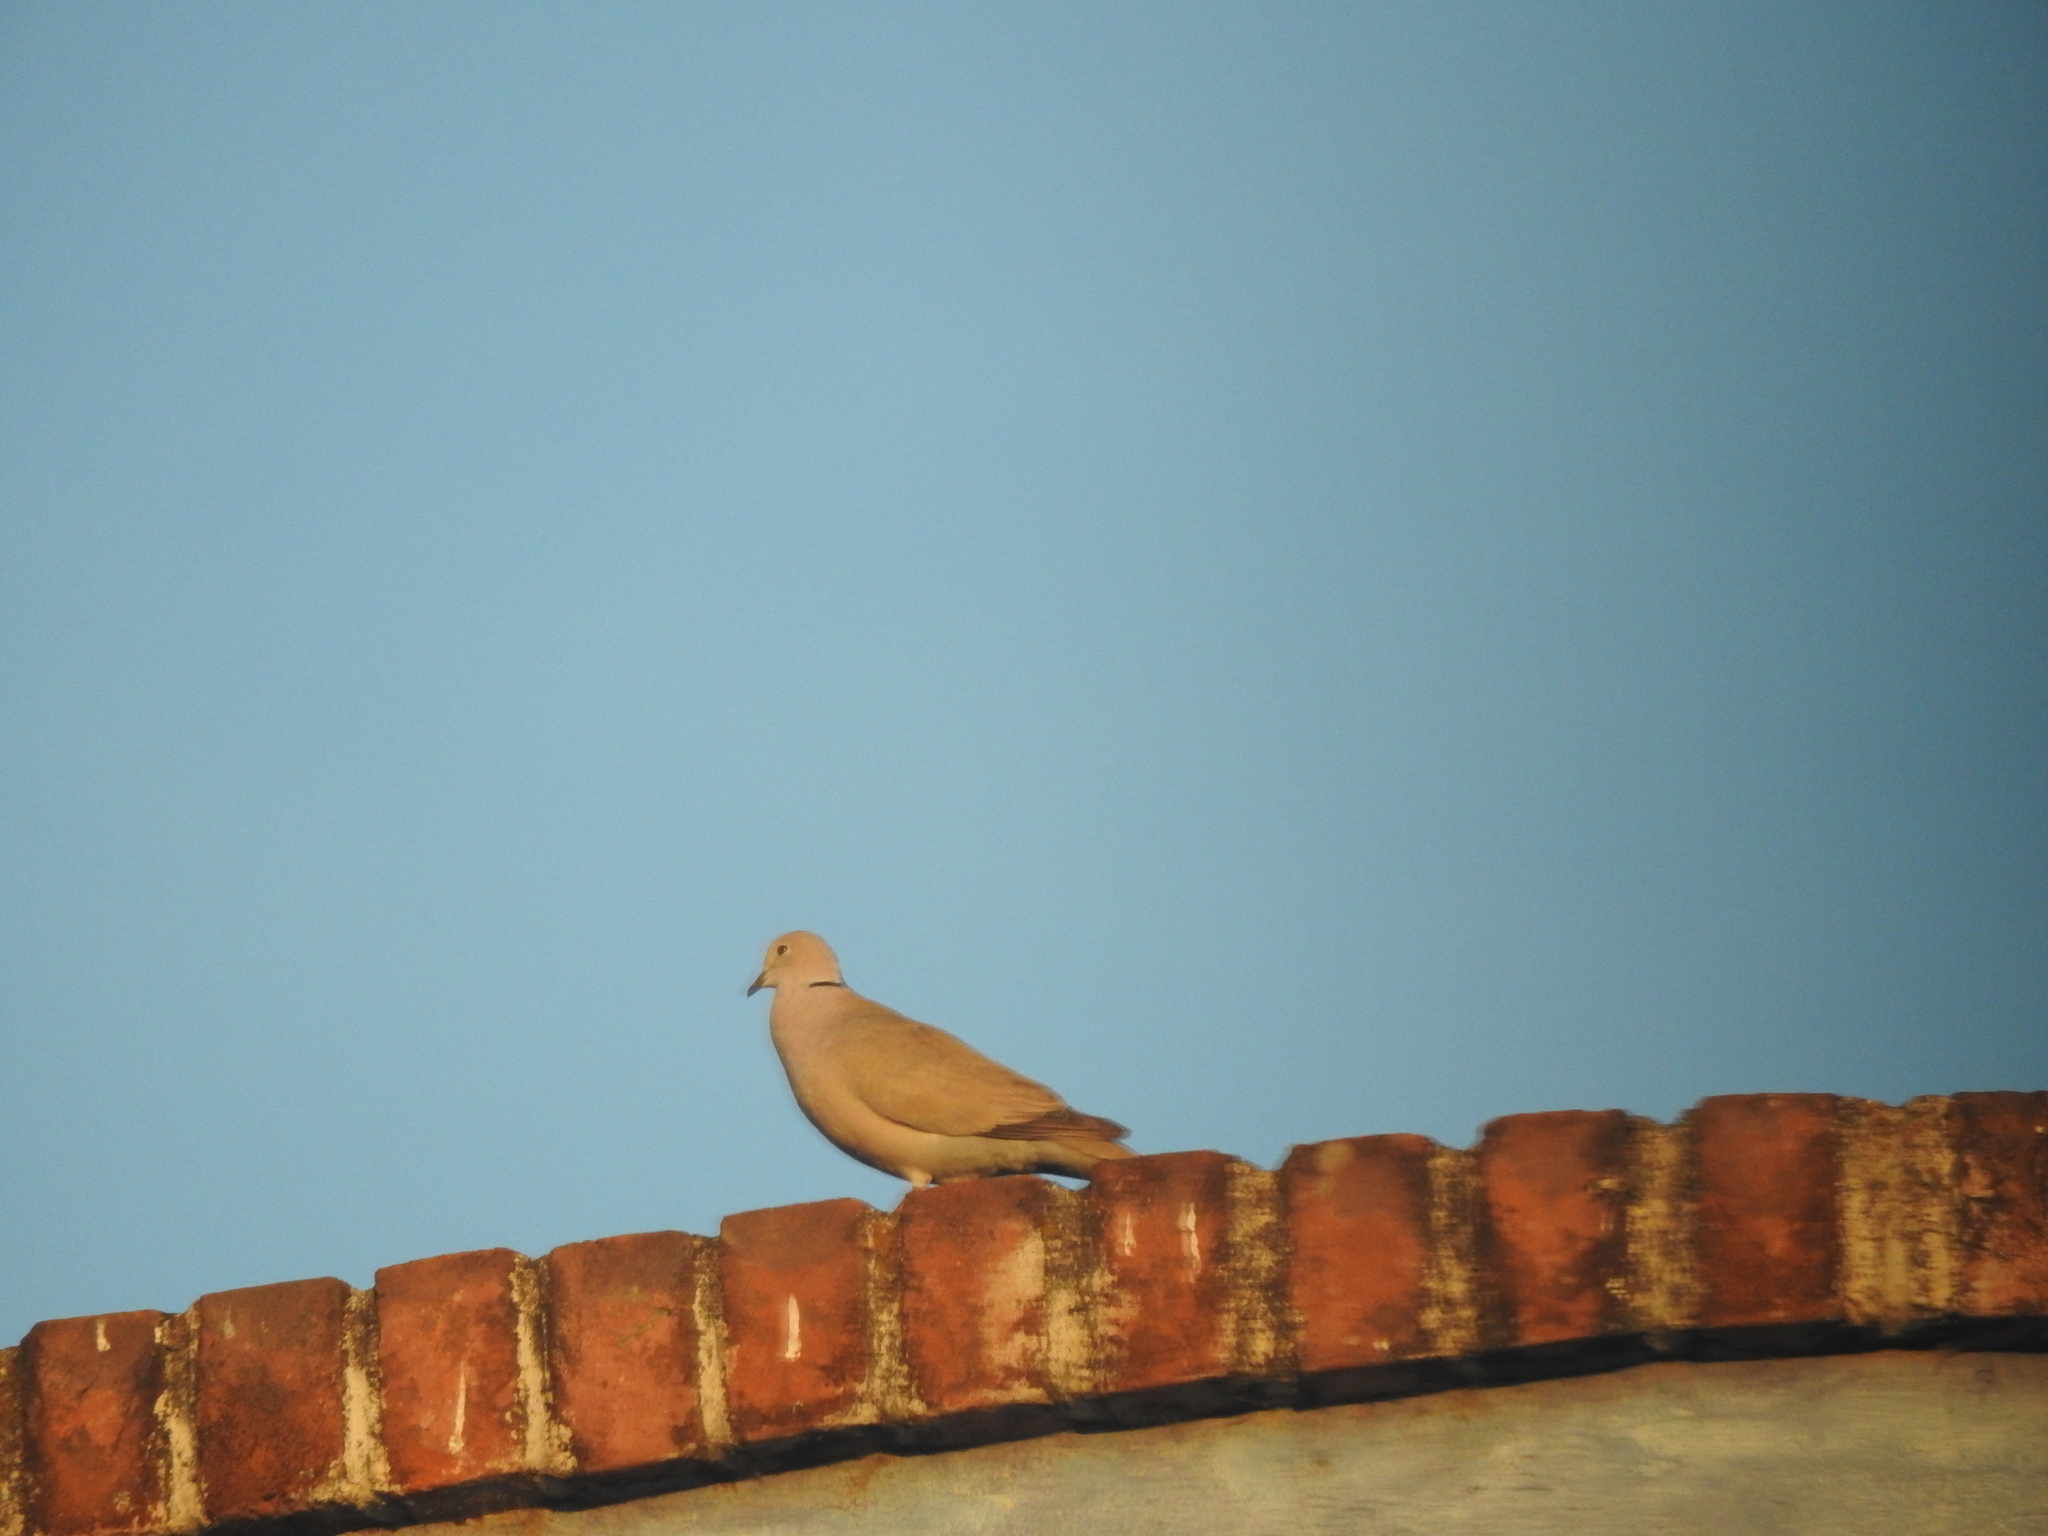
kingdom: Animalia
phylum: Chordata
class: Aves
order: Columbiformes
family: Columbidae
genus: Streptopelia
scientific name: Streptopelia decaocto
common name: Eurasian collared dove
